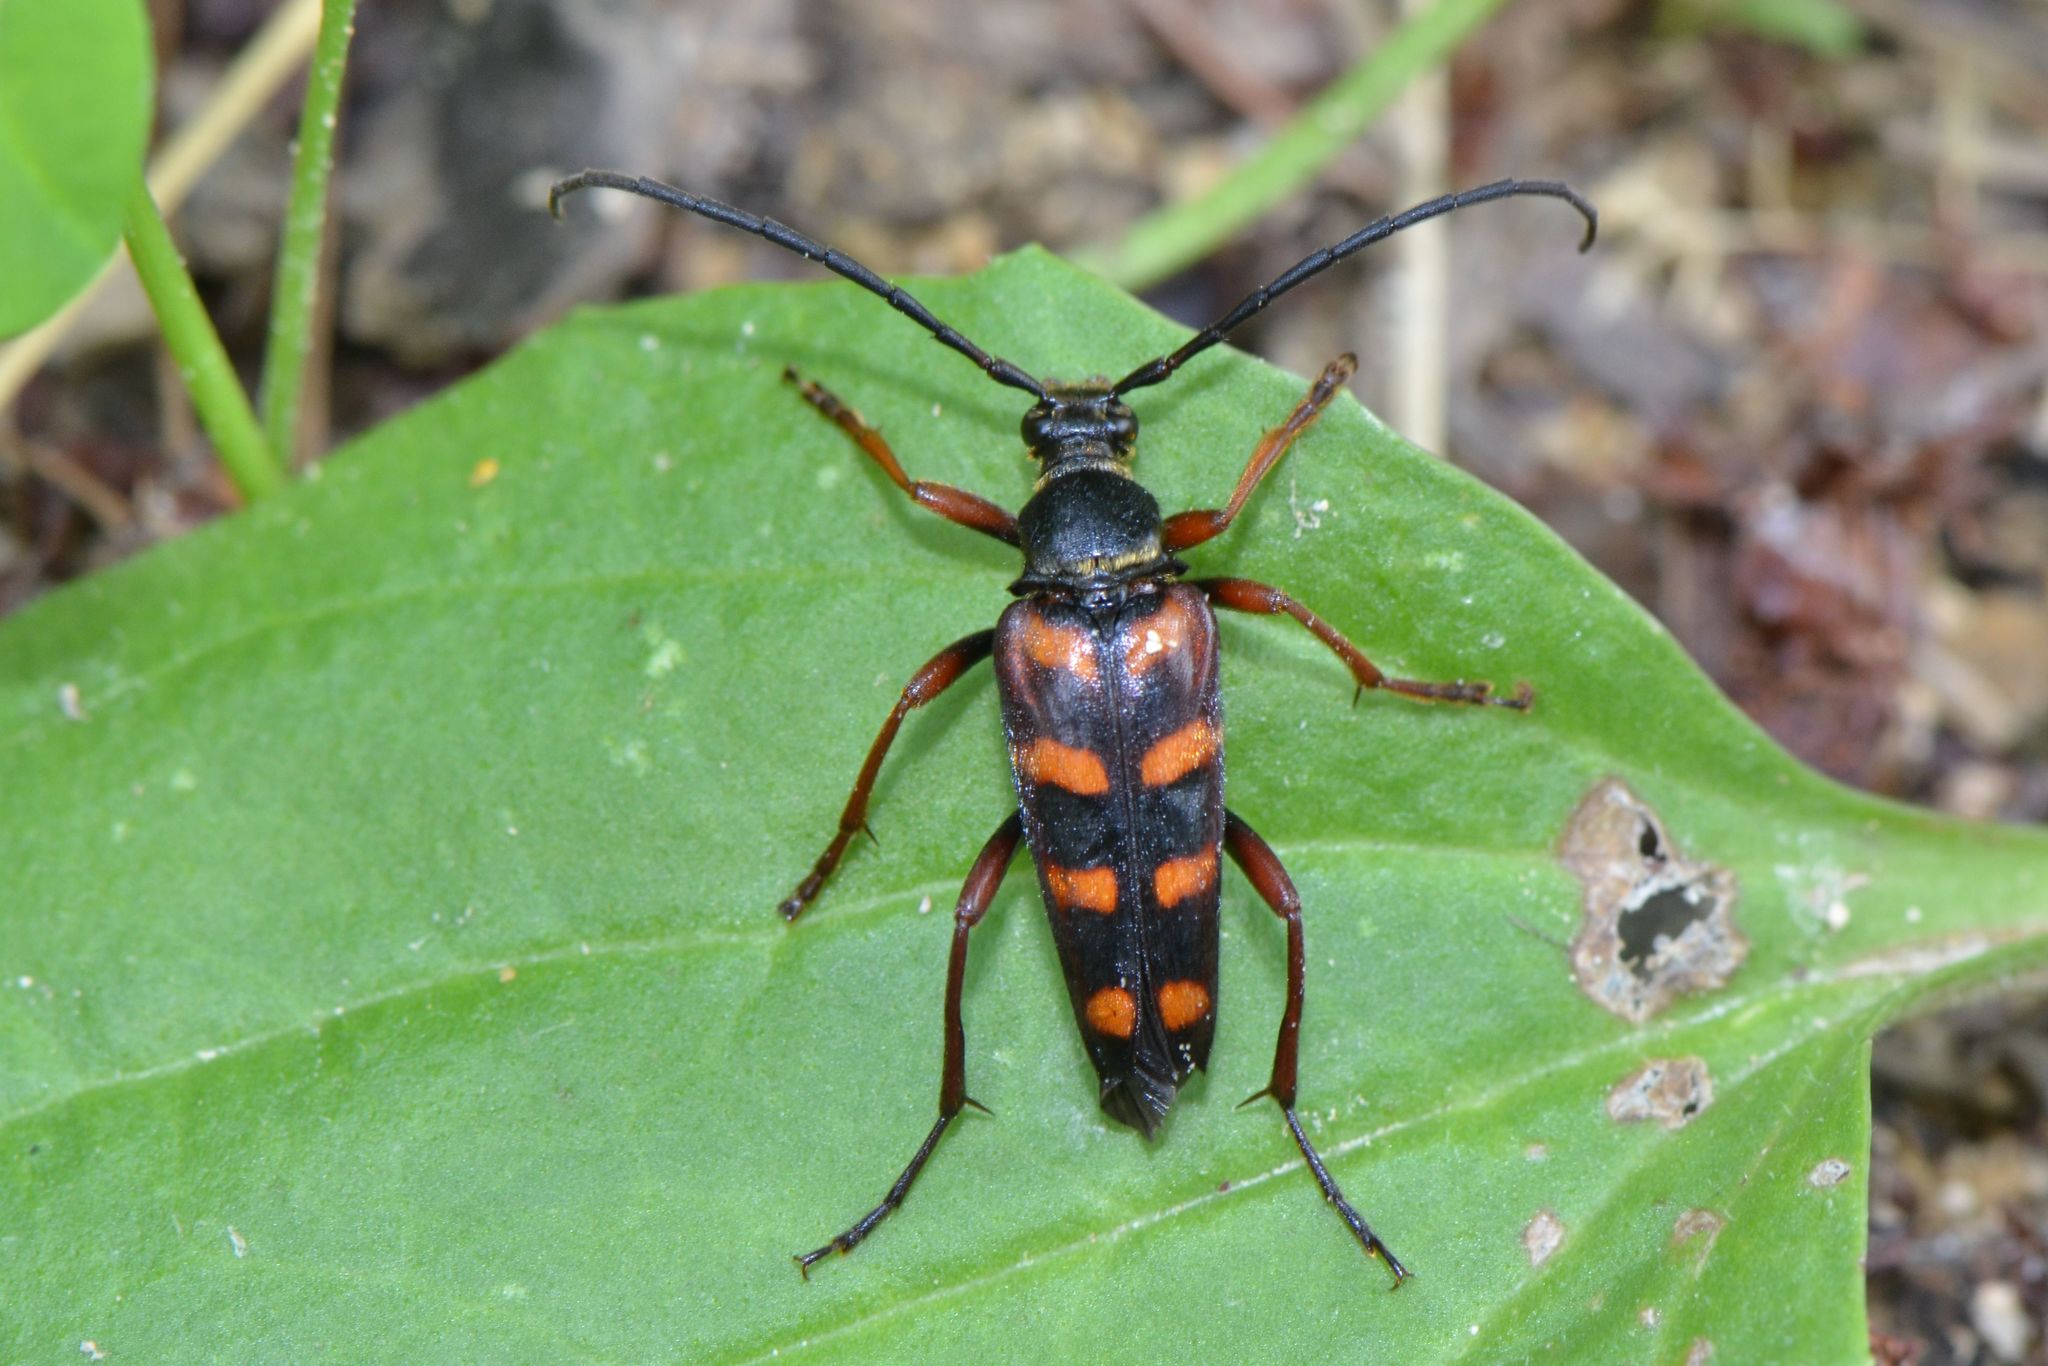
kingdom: Animalia
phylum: Arthropoda
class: Insecta
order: Coleoptera
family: Cerambycidae
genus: Leptura
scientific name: Leptura aurulenta
